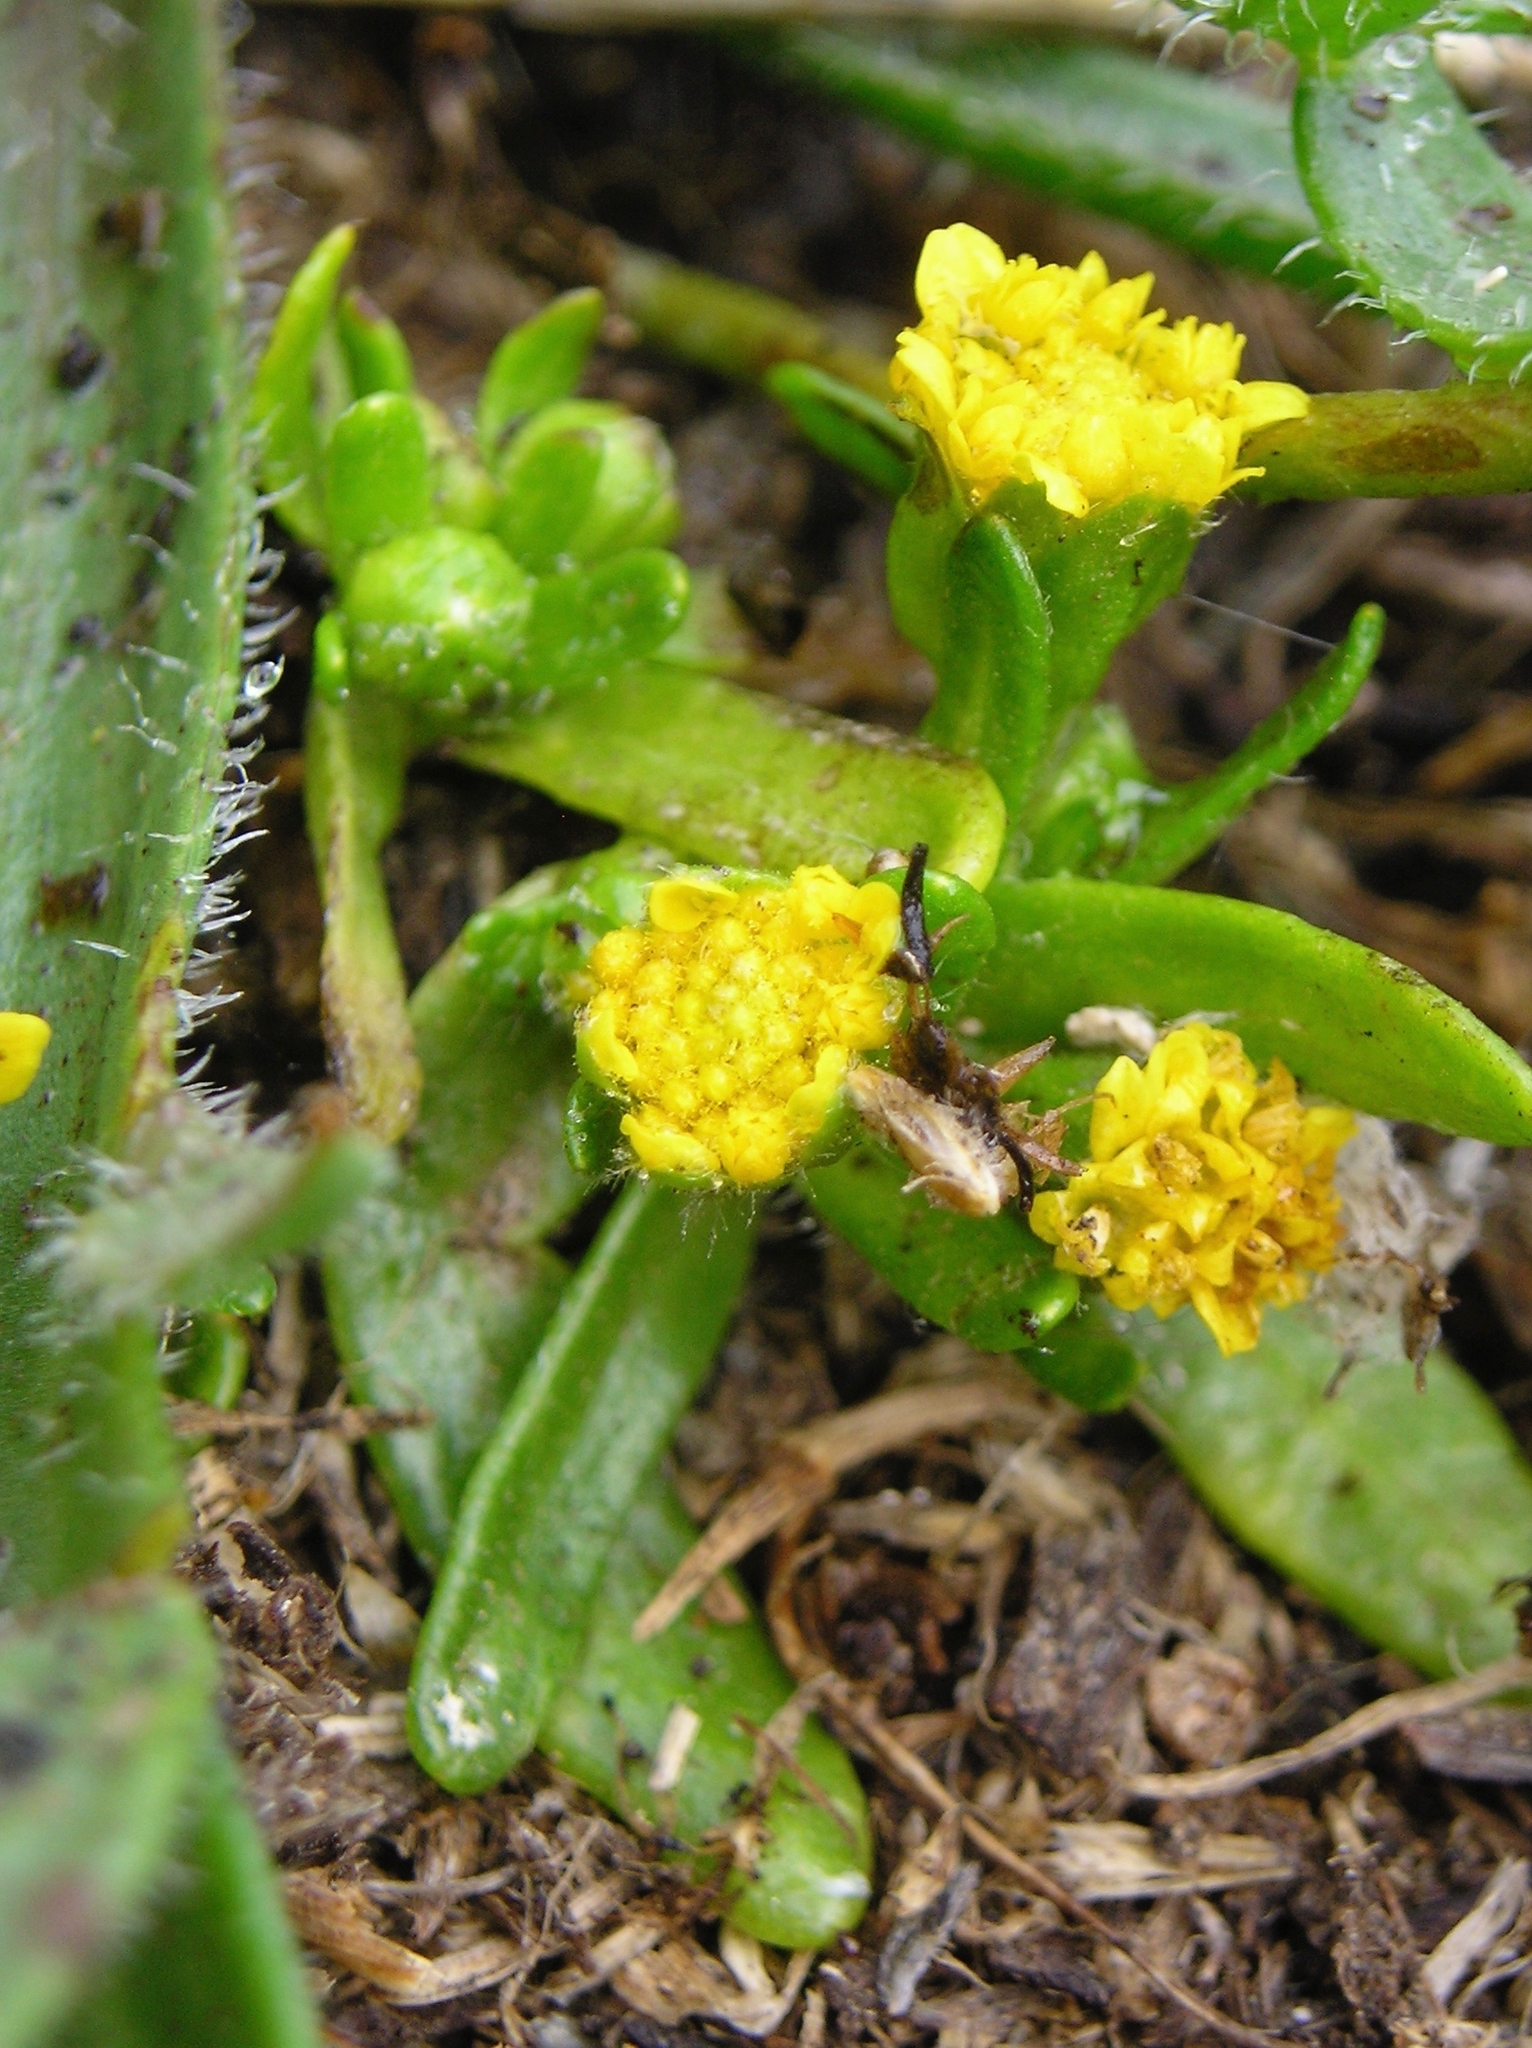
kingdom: Plantae
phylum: Tracheophyta
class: Magnoliopsida
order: Asterales
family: Asteraceae
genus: Lasthenia
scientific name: Lasthenia maritima
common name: Hairy goldfields
